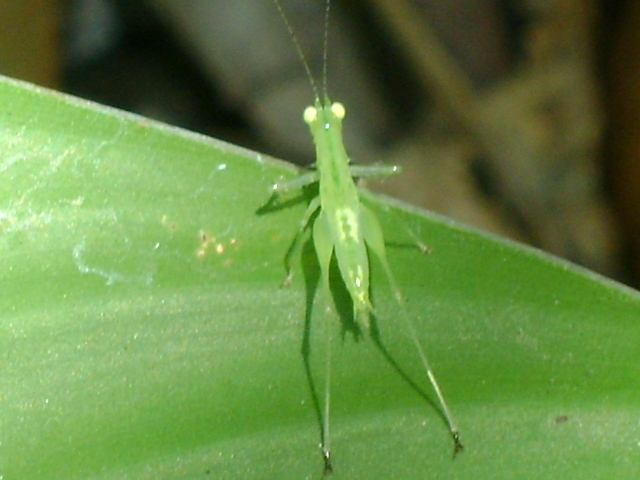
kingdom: Animalia
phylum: Arthropoda
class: Insecta
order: Orthoptera
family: Tettigoniidae
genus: Phlugis
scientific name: Phlugis
